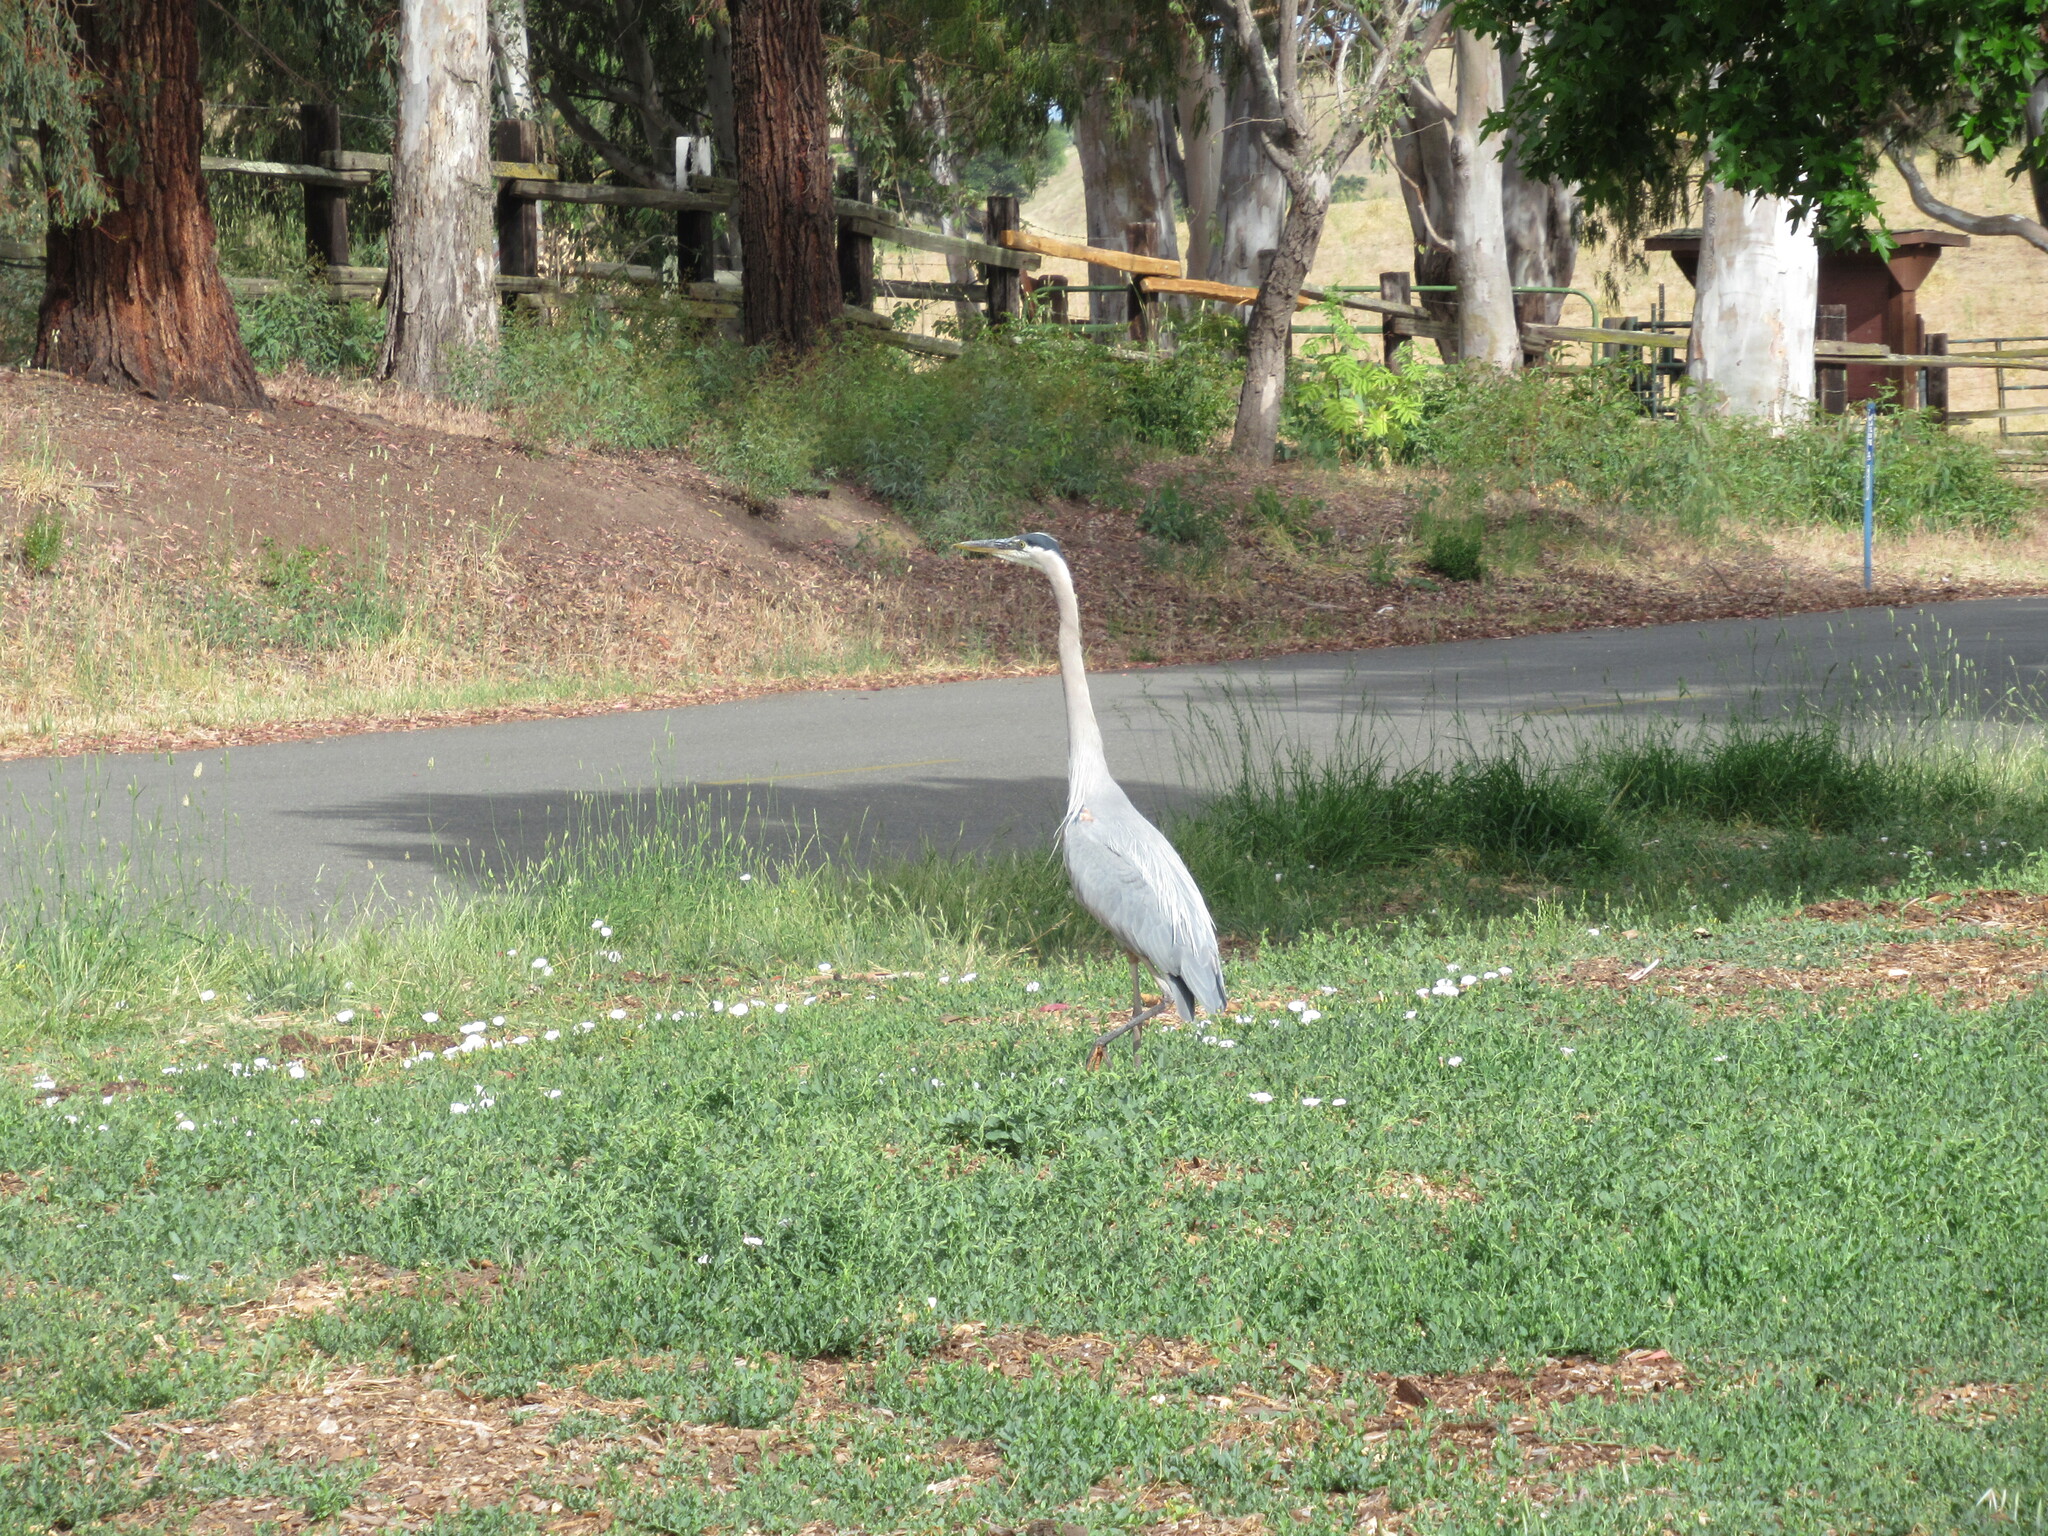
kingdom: Animalia
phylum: Chordata
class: Aves
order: Pelecaniformes
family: Ardeidae
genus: Ardea
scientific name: Ardea herodias
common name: Great blue heron
